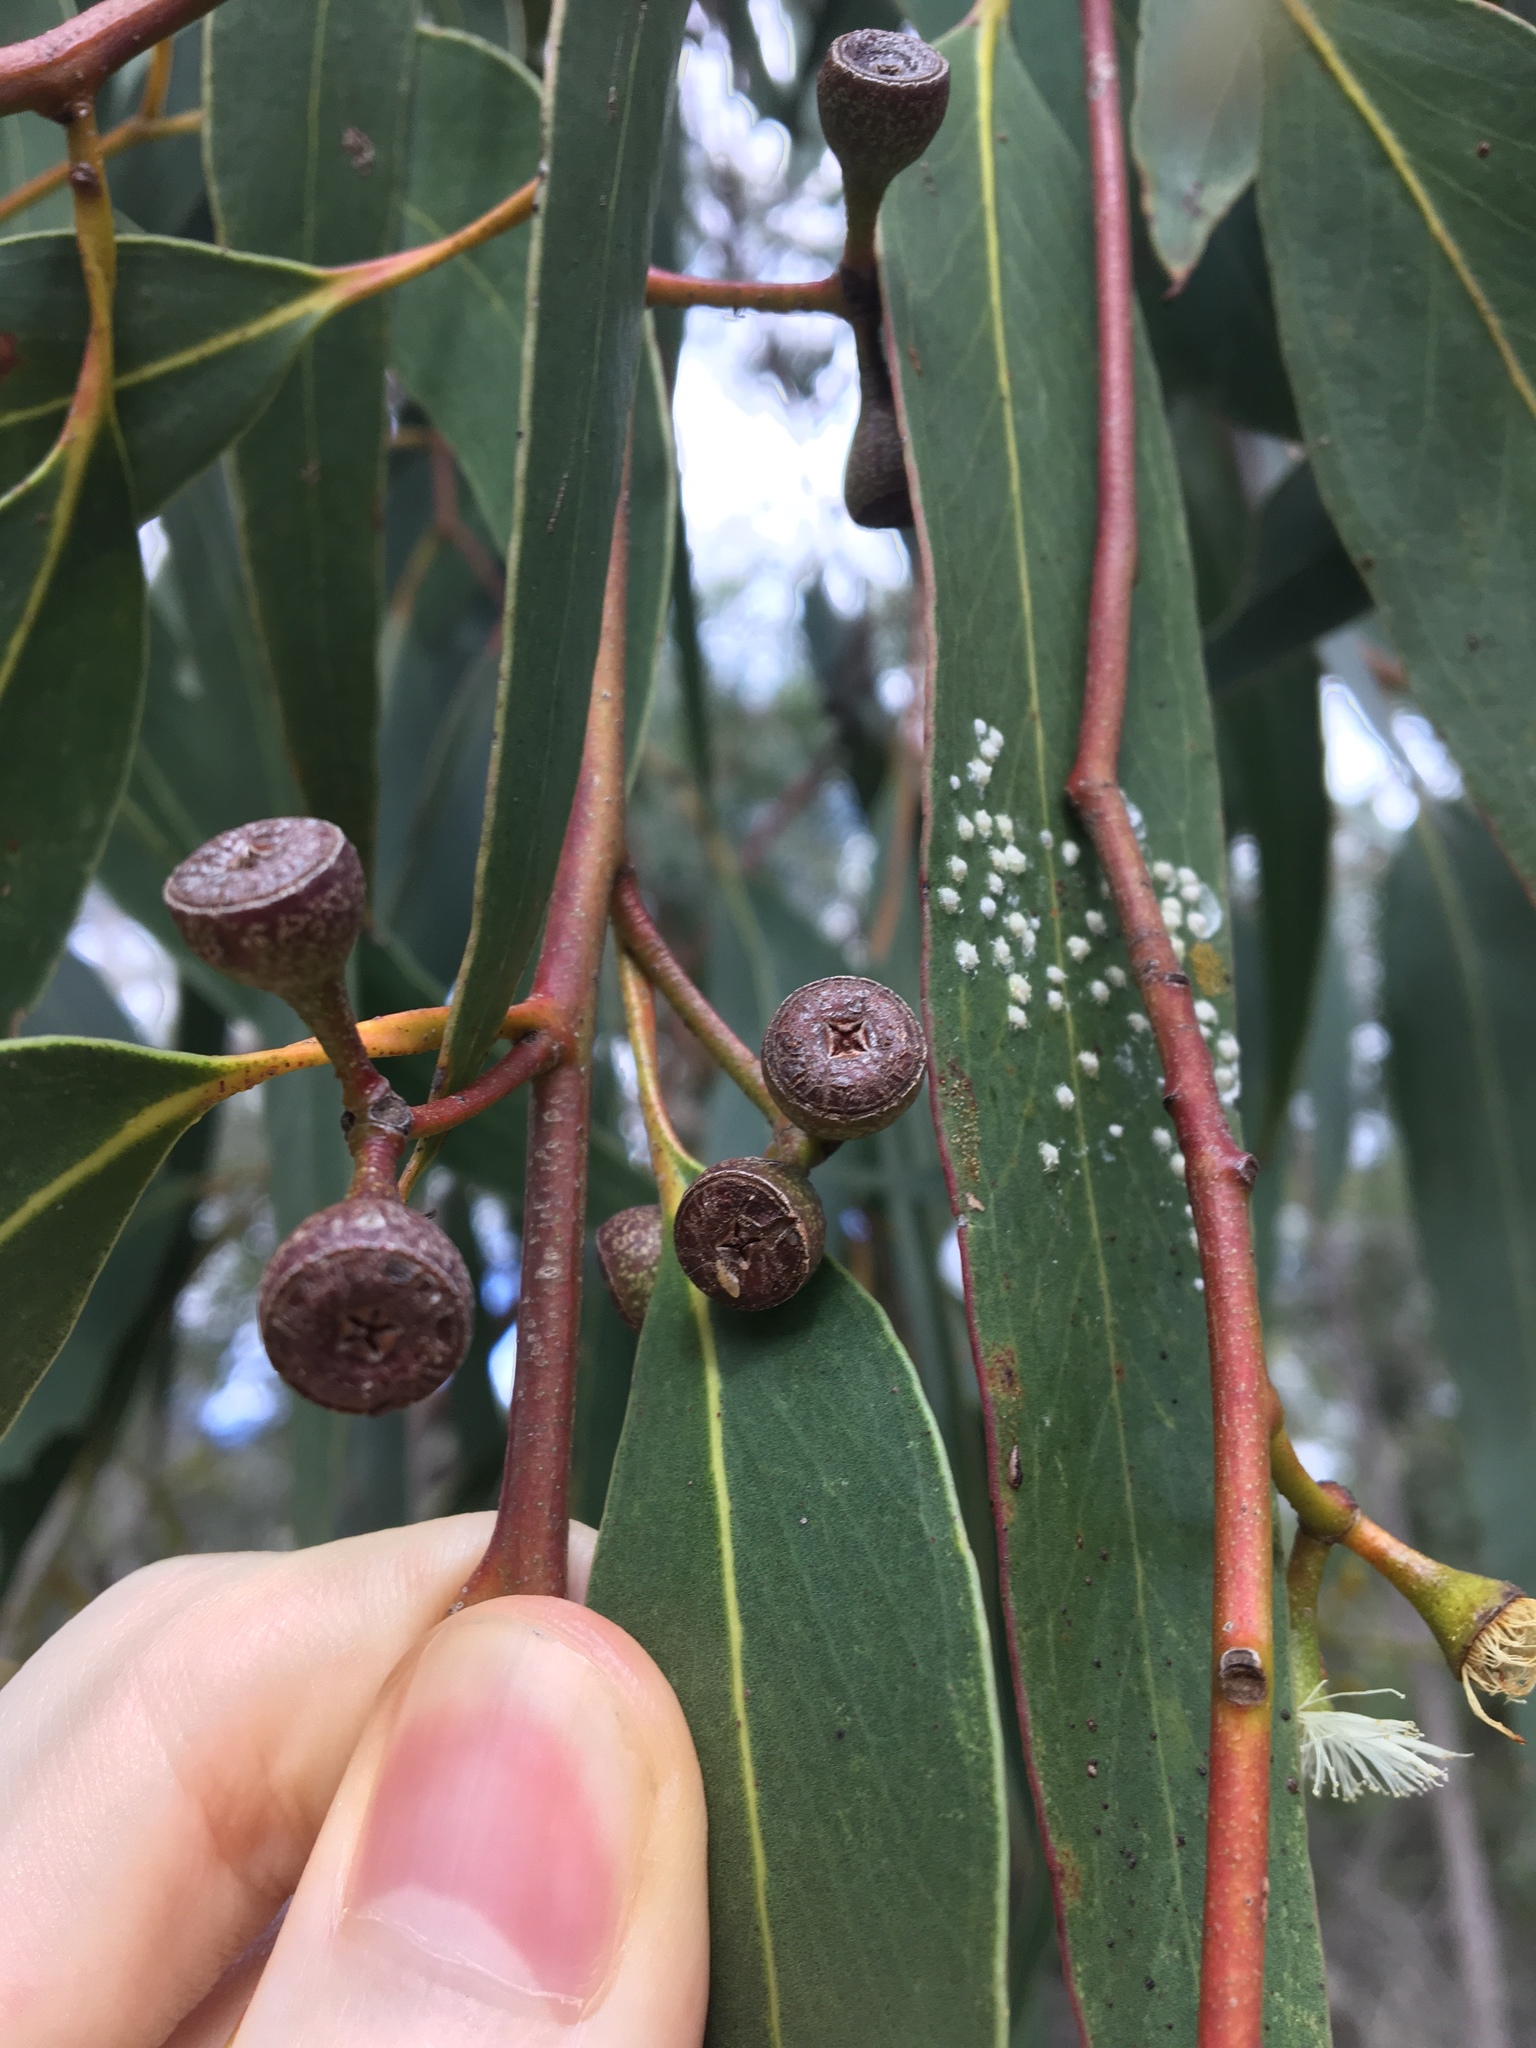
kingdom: Plantae
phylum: Tracheophyta
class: Magnoliopsida
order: Myrtales
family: Myrtaceae
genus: Eucalyptus
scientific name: Eucalyptus haemastoma
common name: Scribbly-gum
